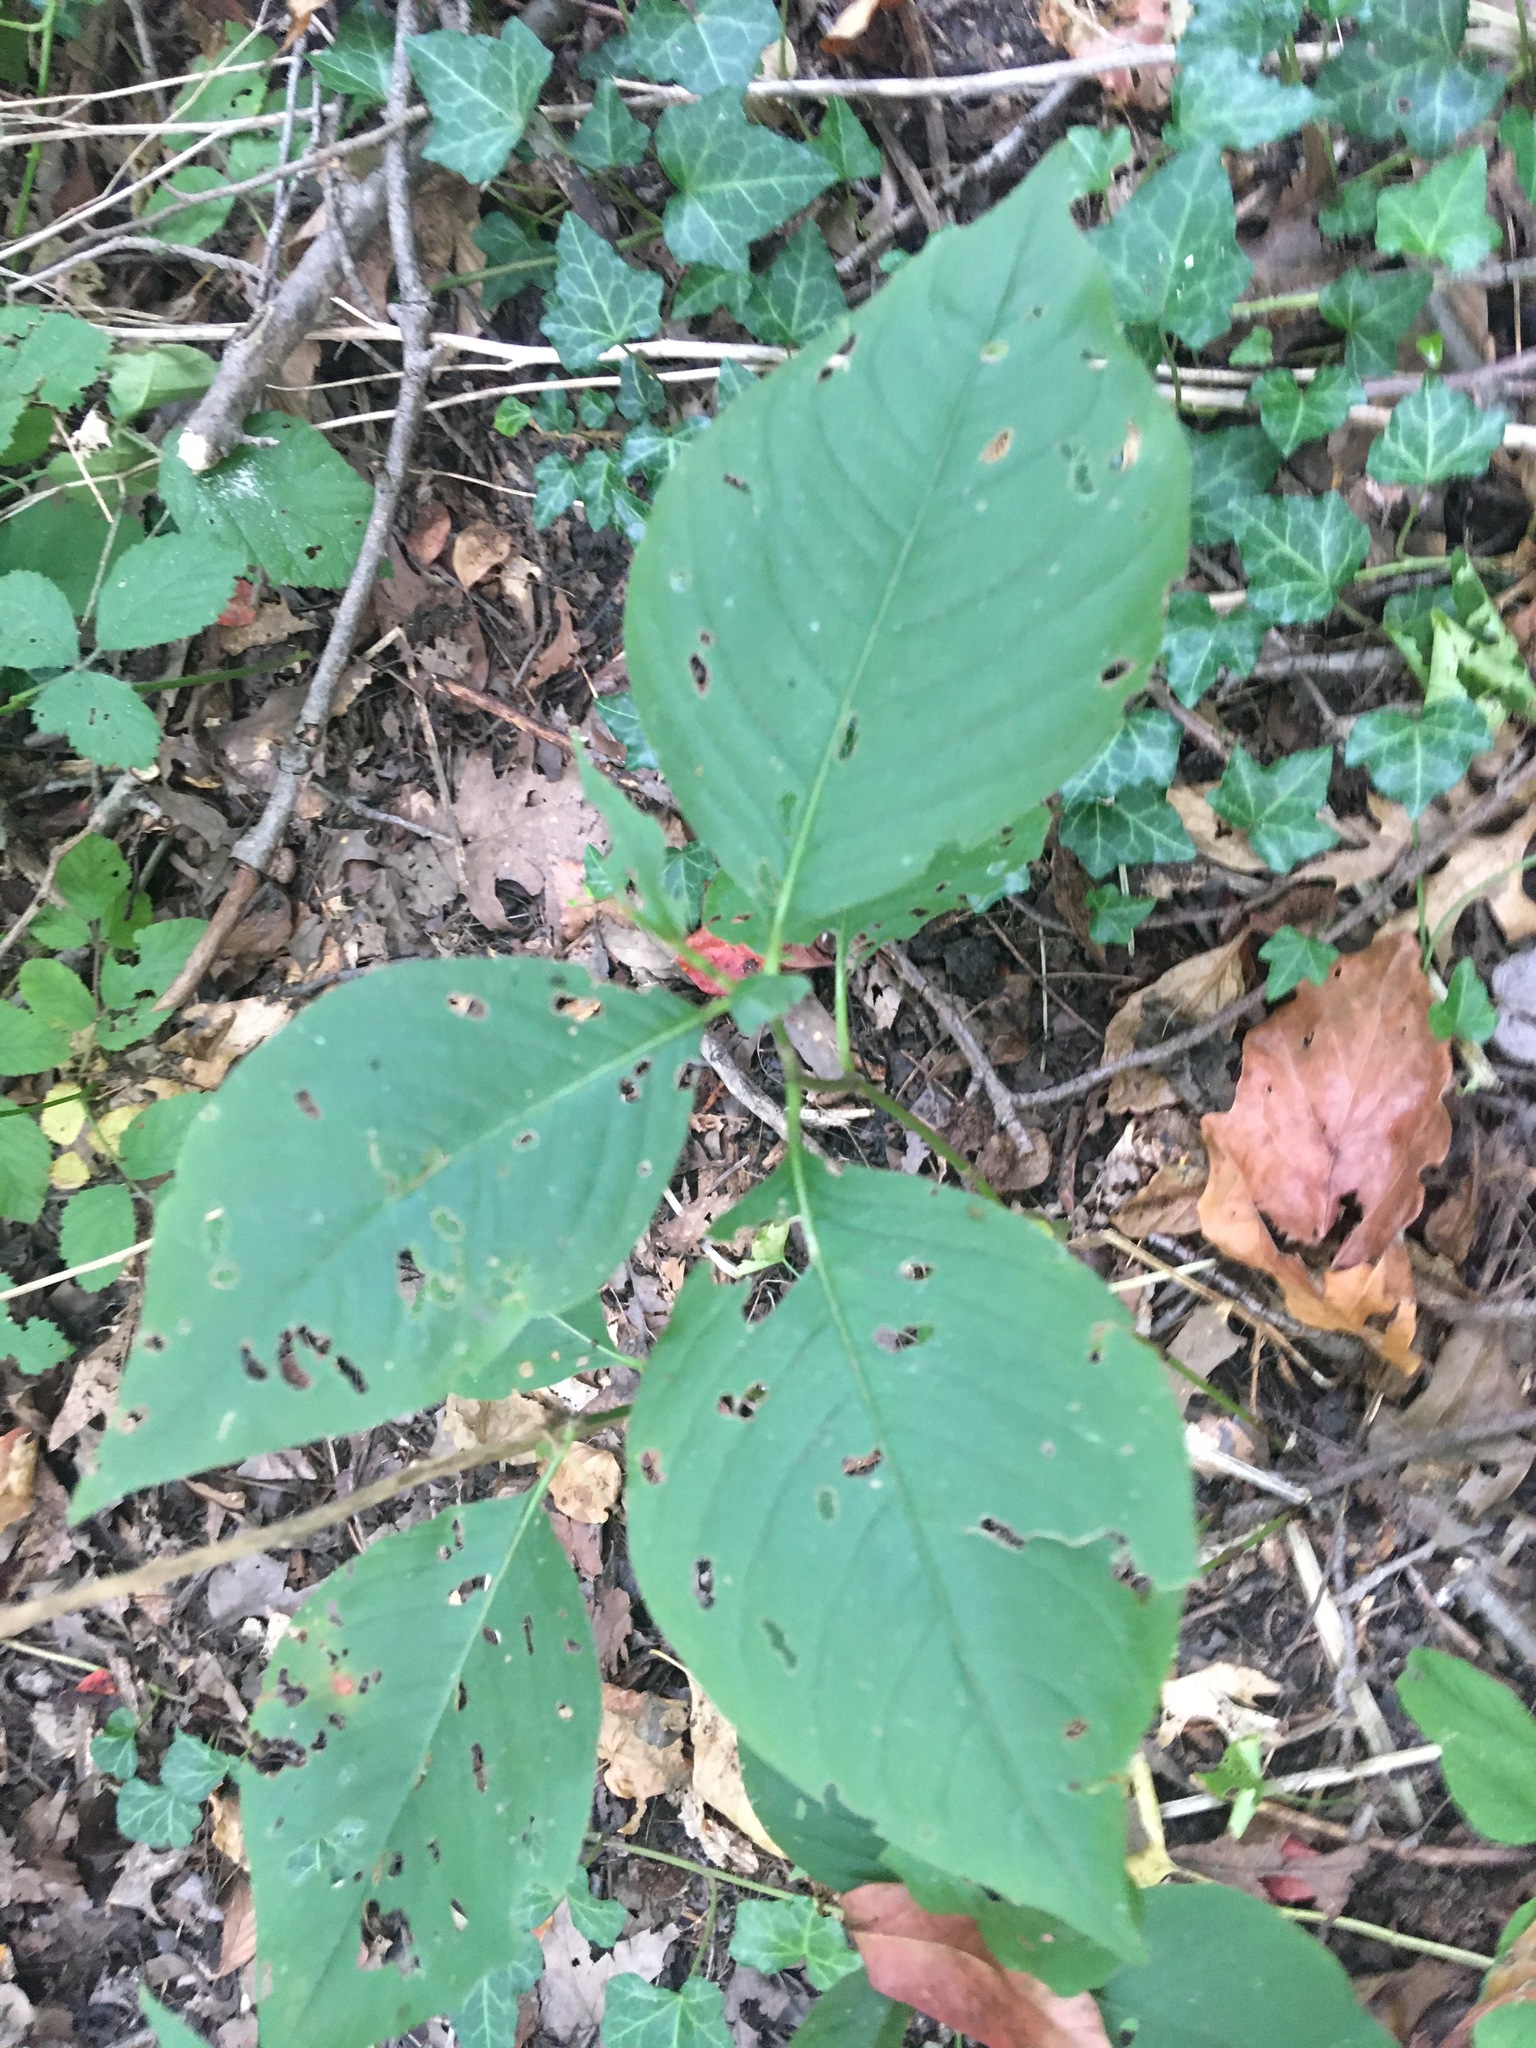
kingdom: Plantae
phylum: Tracheophyta
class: Magnoliopsida
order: Caryophyllales
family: Polygonaceae
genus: Persicaria
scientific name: Persicaria virginiana
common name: Jumpseed
